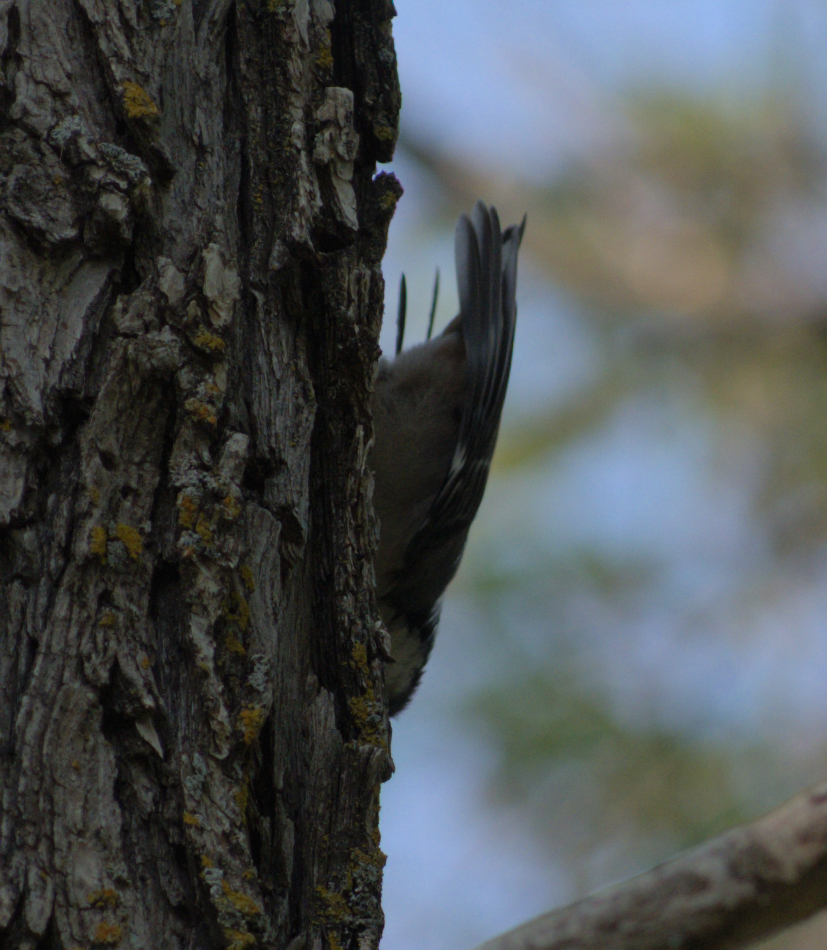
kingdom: Animalia
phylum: Chordata
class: Aves
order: Passeriformes
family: Sittidae
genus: Sitta
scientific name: Sitta carolinensis
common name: White-breasted nuthatch
